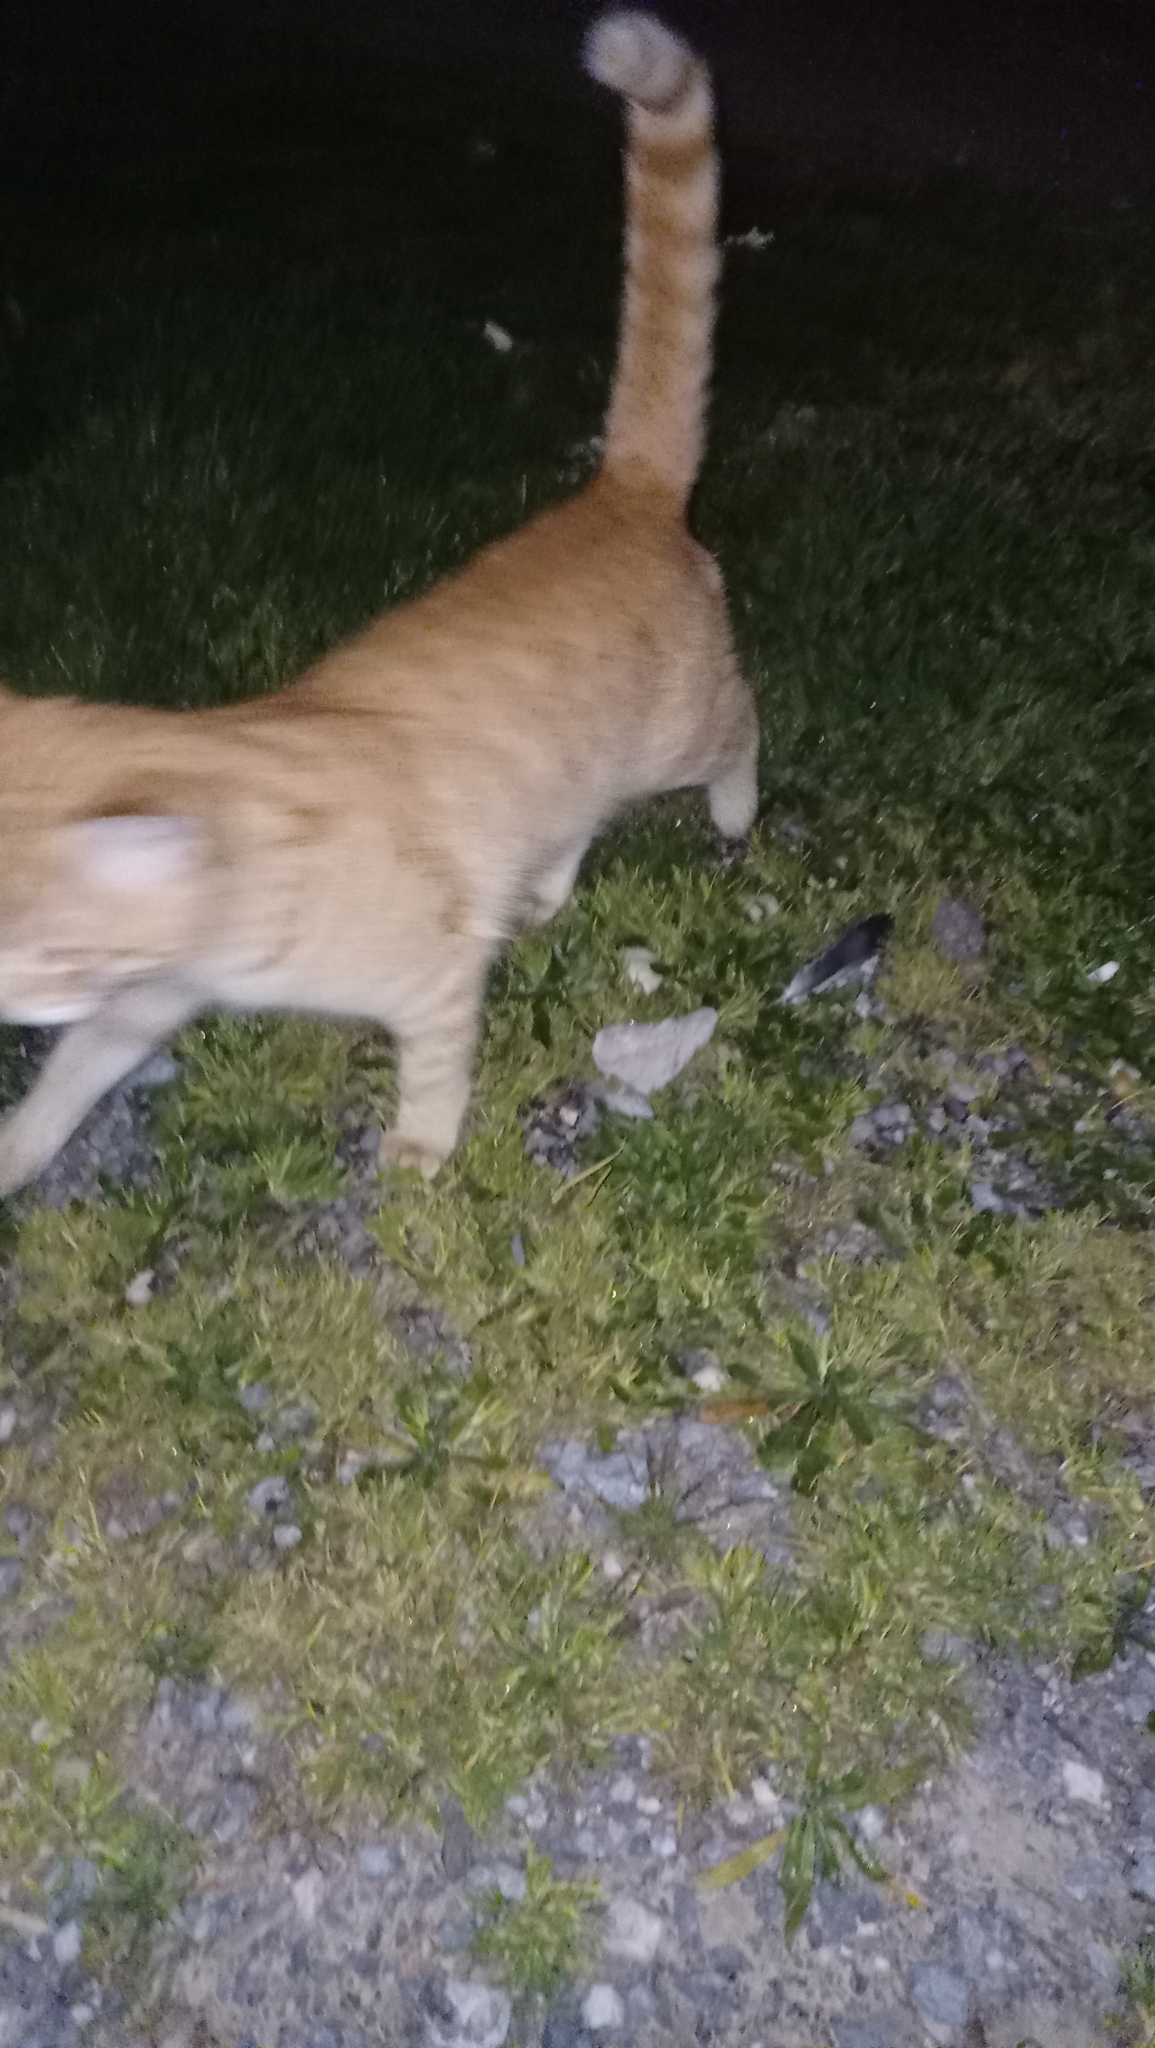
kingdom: Animalia
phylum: Chordata
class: Mammalia
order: Carnivora
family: Felidae
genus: Felis
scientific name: Felis catus
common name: Domestic cat
